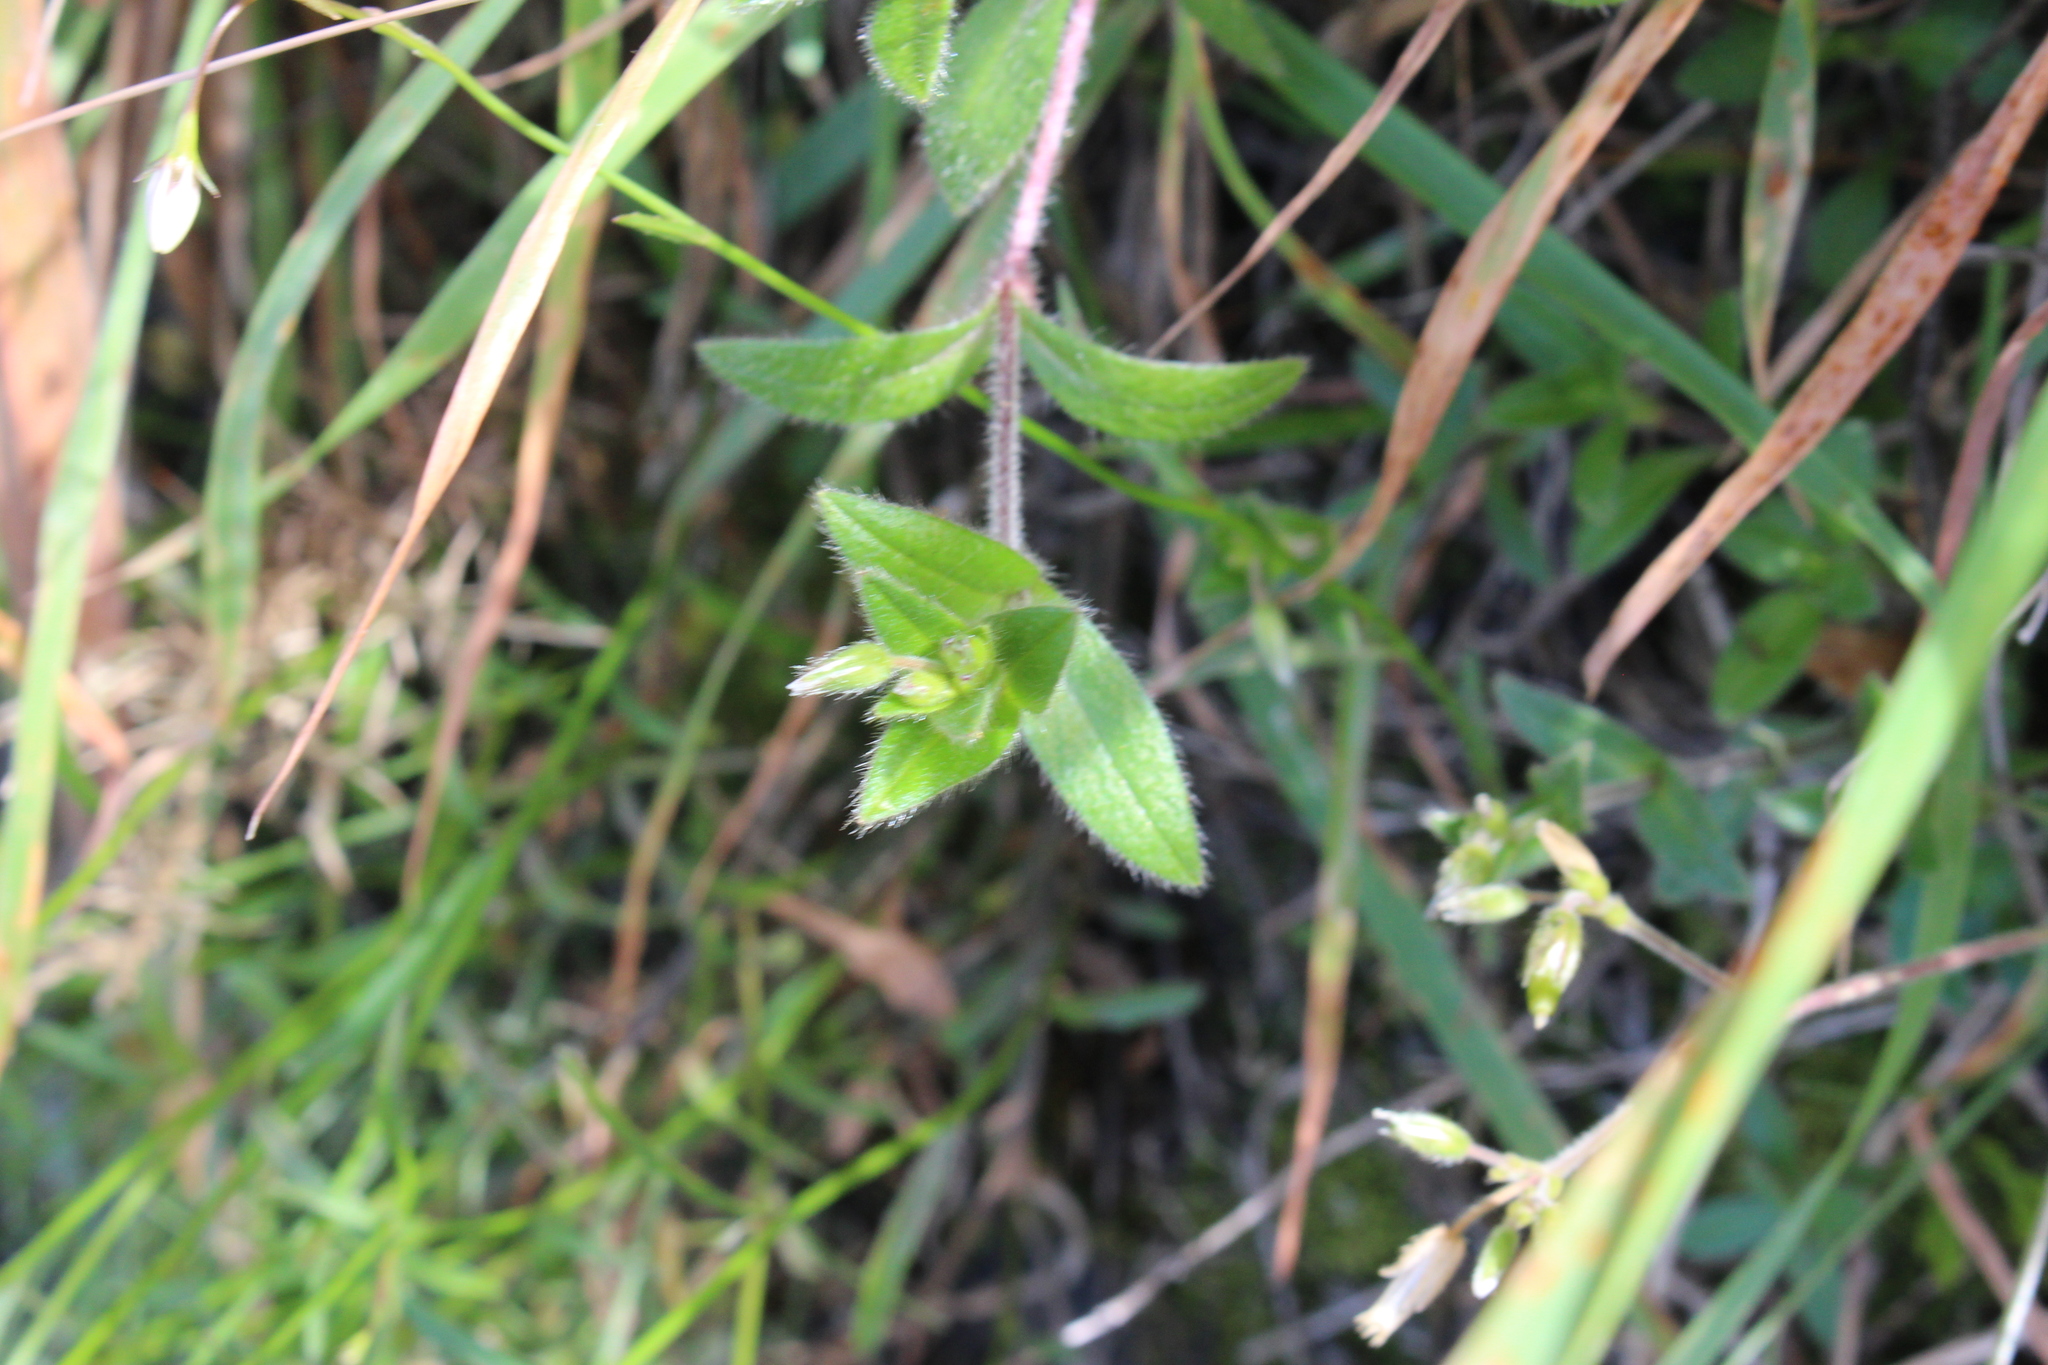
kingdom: Plantae
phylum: Tracheophyta
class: Magnoliopsida
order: Caryophyllales
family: Caryophyllaceae
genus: Cerastium
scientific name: Cerastium fontanum
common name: Common mouse-ear
